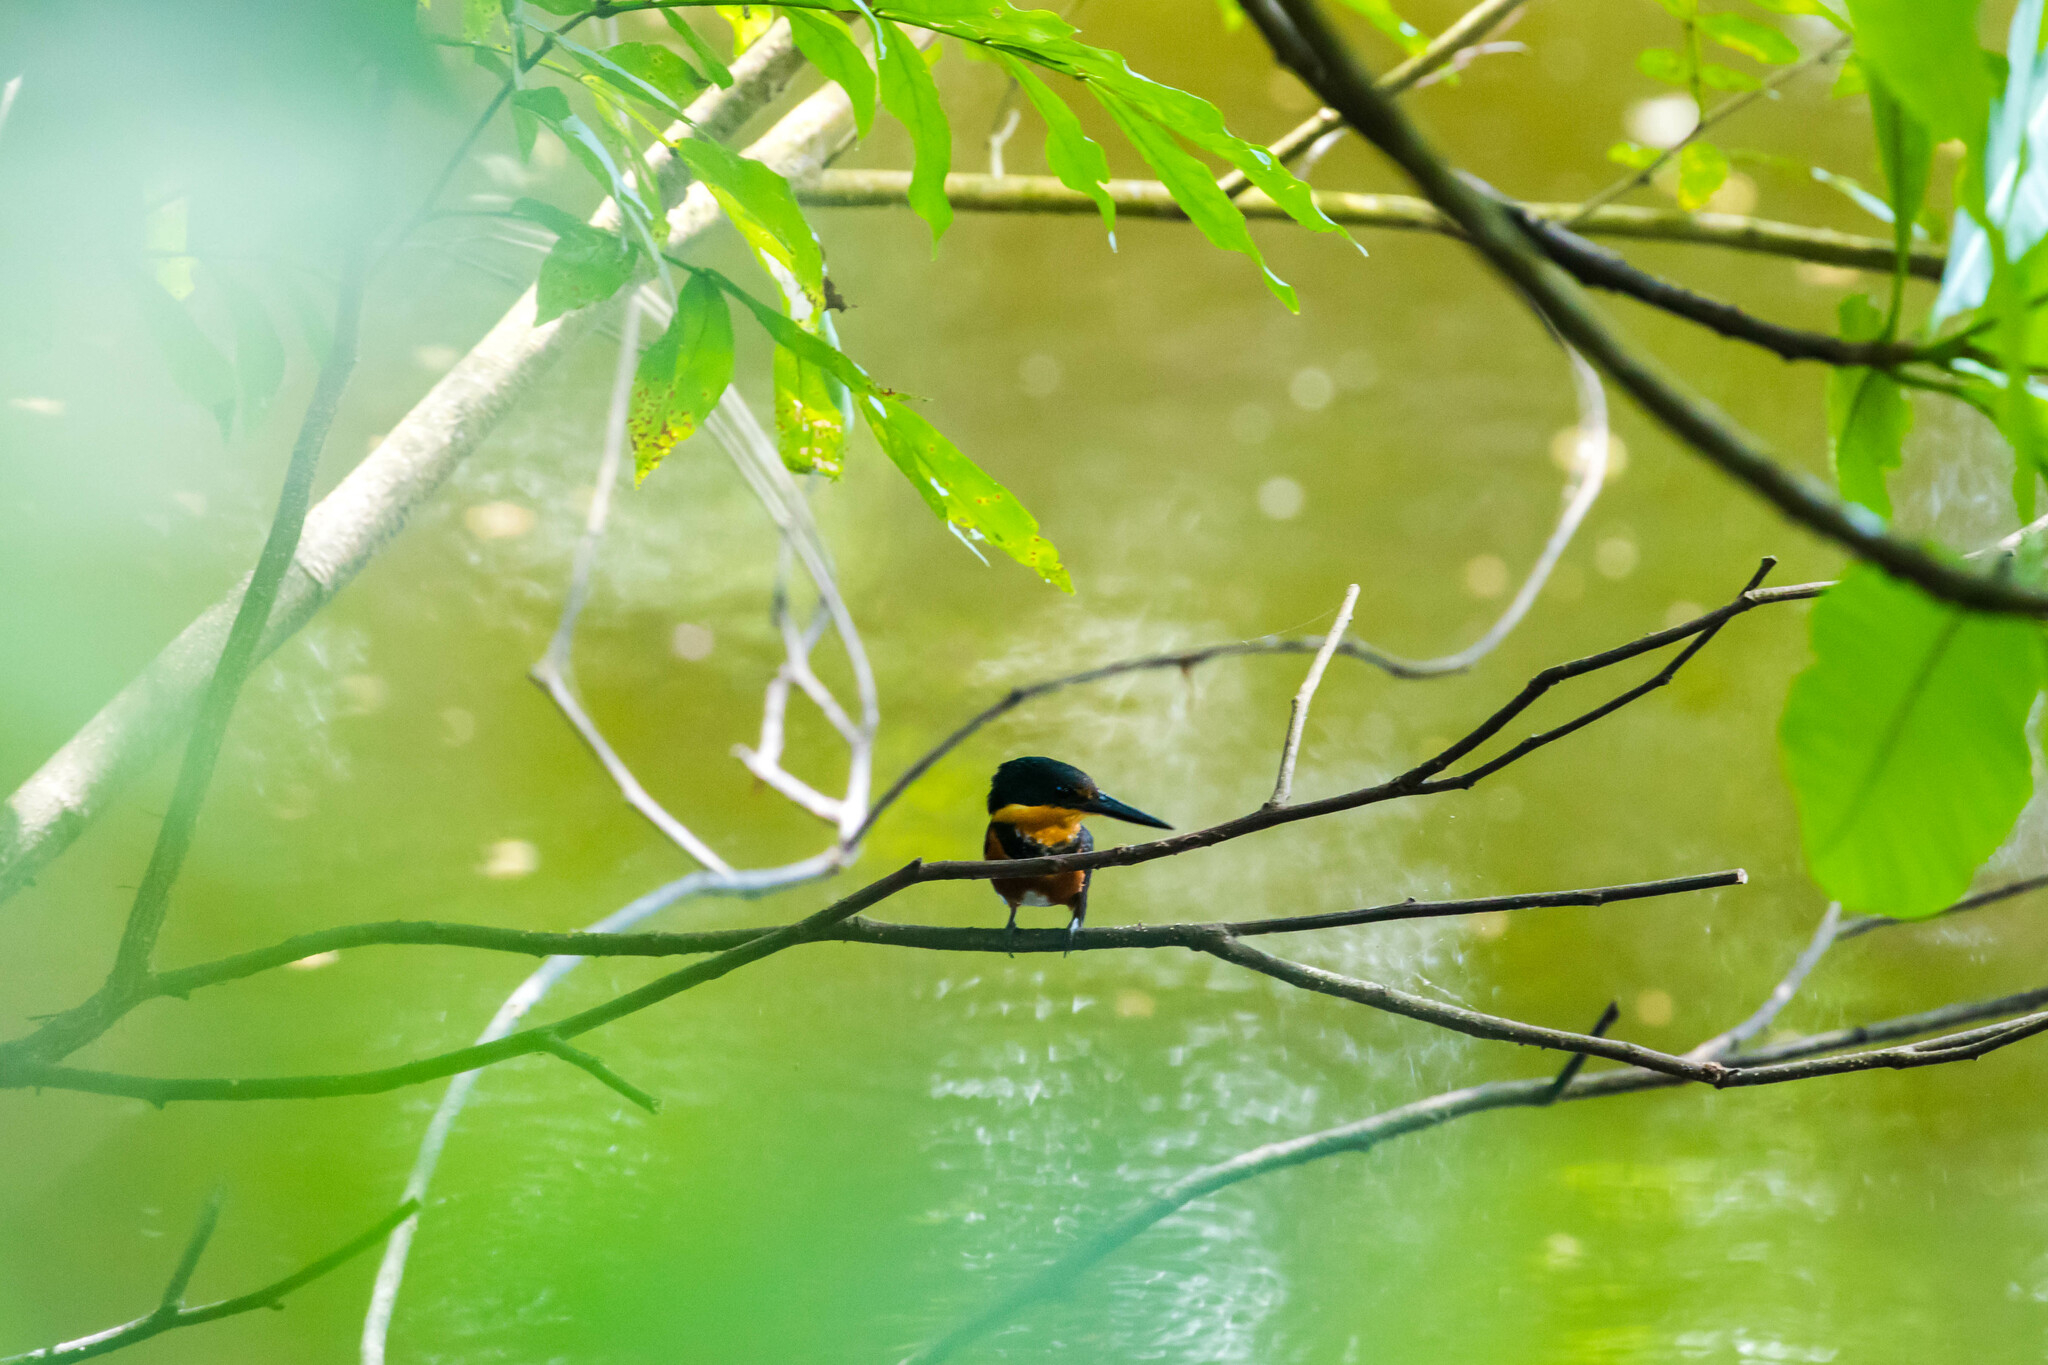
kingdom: Animalia
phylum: Chordata
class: Aves
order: Coraciiformes
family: Alcedinidae
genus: Chloroceryle
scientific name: Chloroceryle aenea
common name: American pygmy kingfisher
